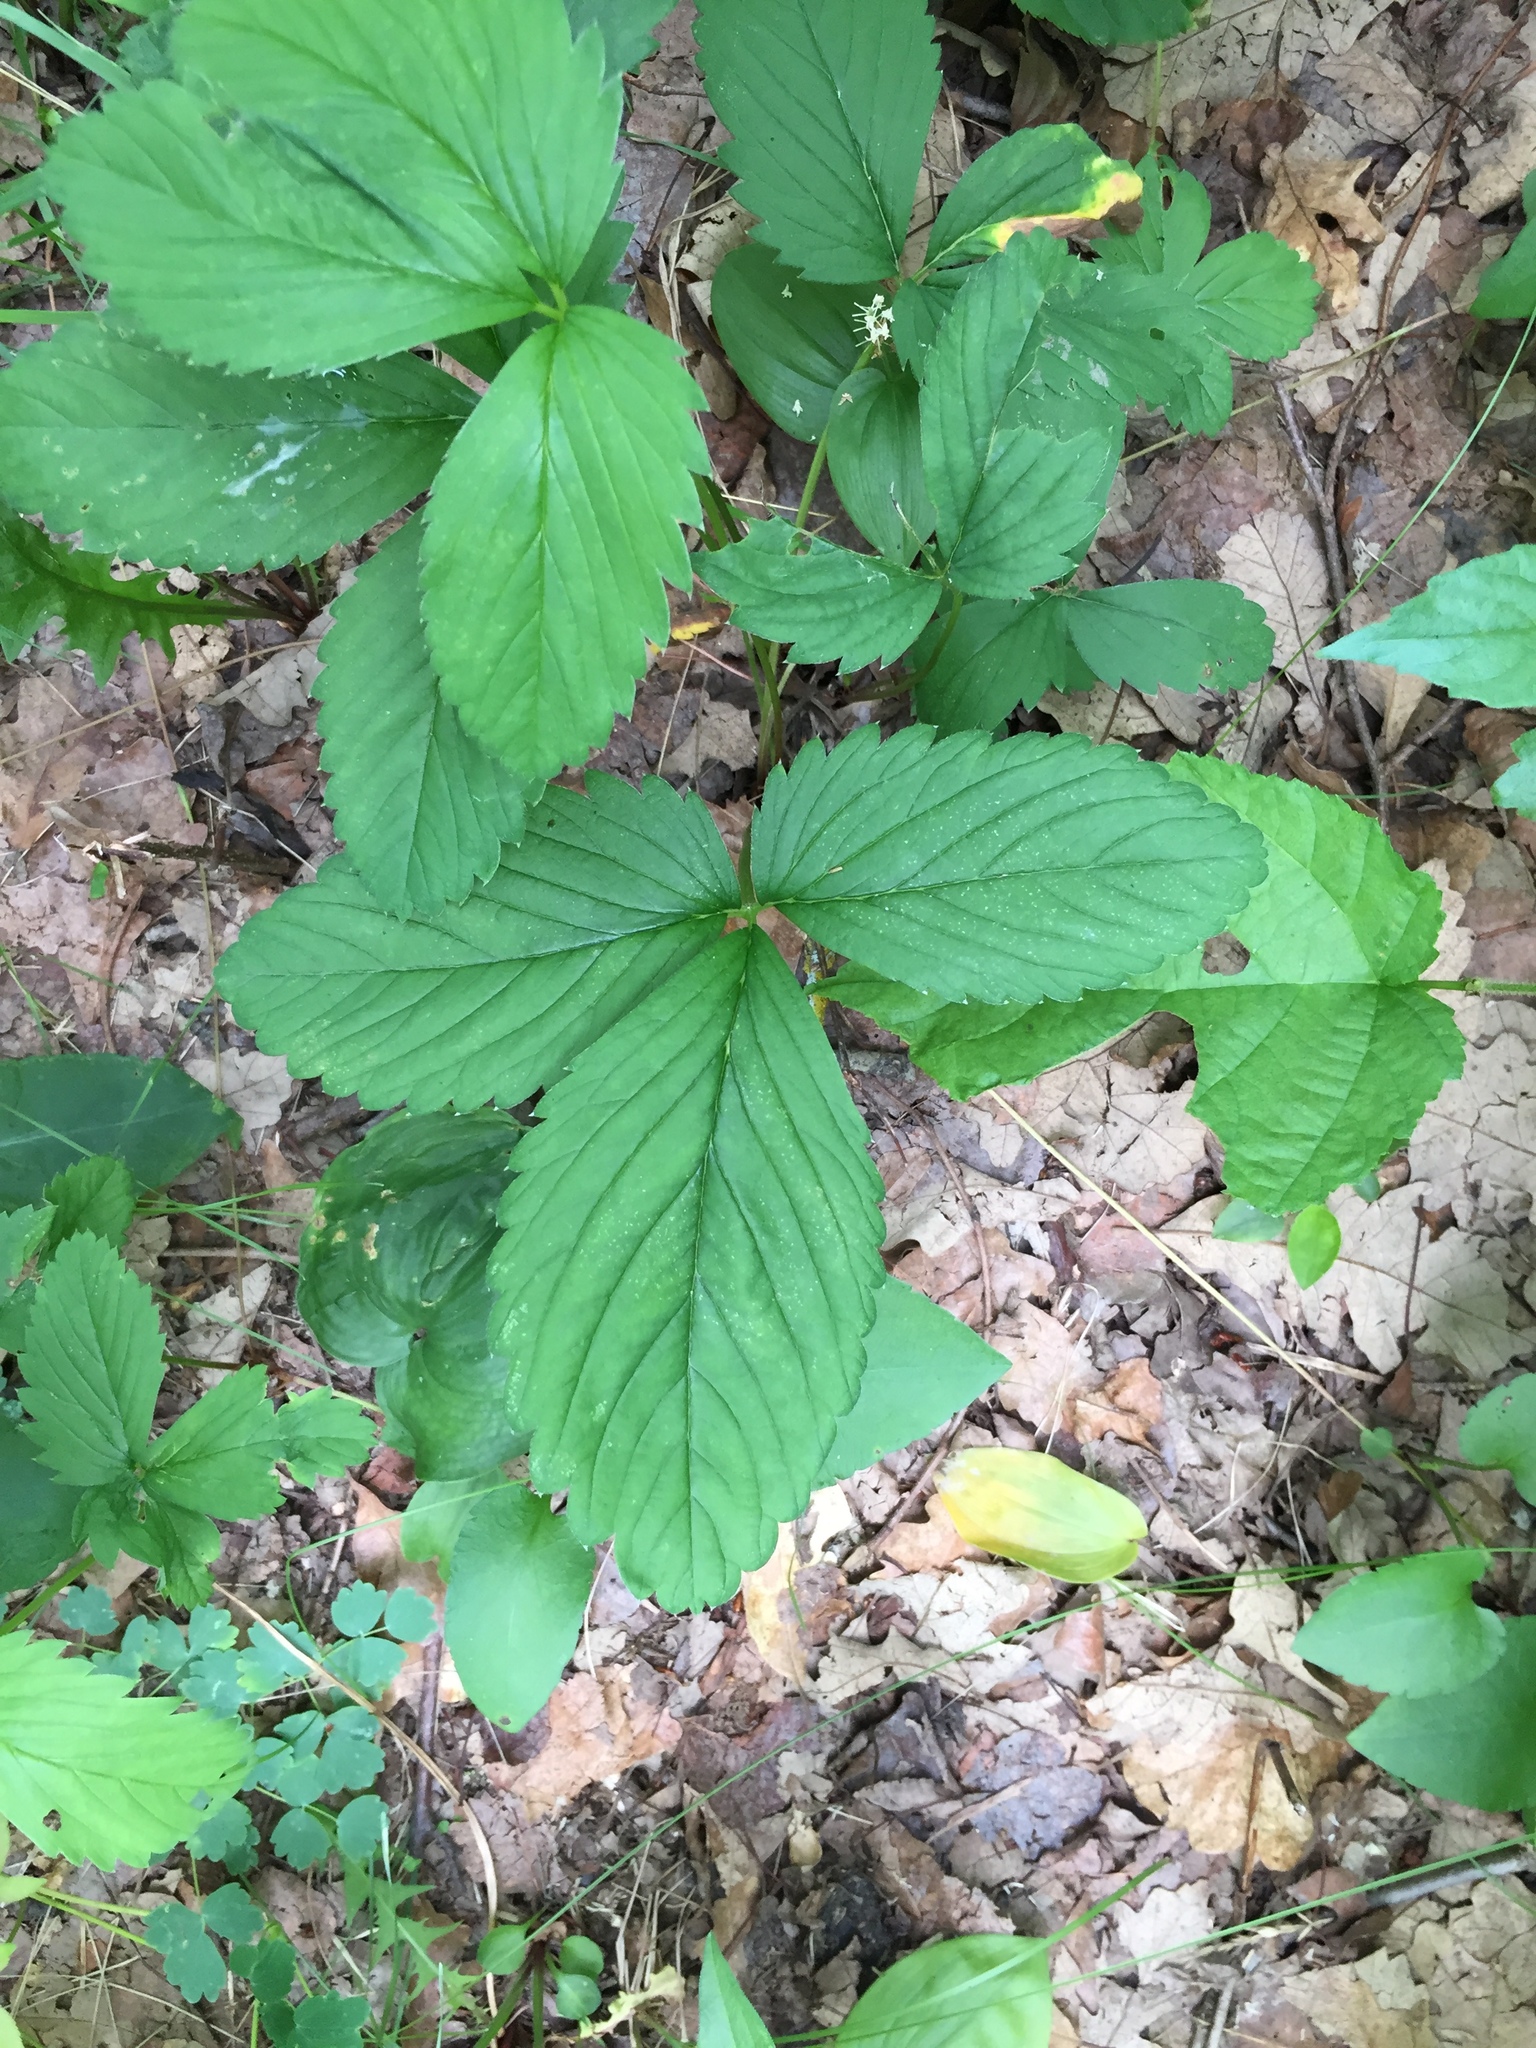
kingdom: Plantae
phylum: Tracheophyta
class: Magnoliopsida
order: Rosales
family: Rosaceae
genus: Fragaria
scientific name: Fragaria virginiana
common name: Thickleaved wild strawberry
